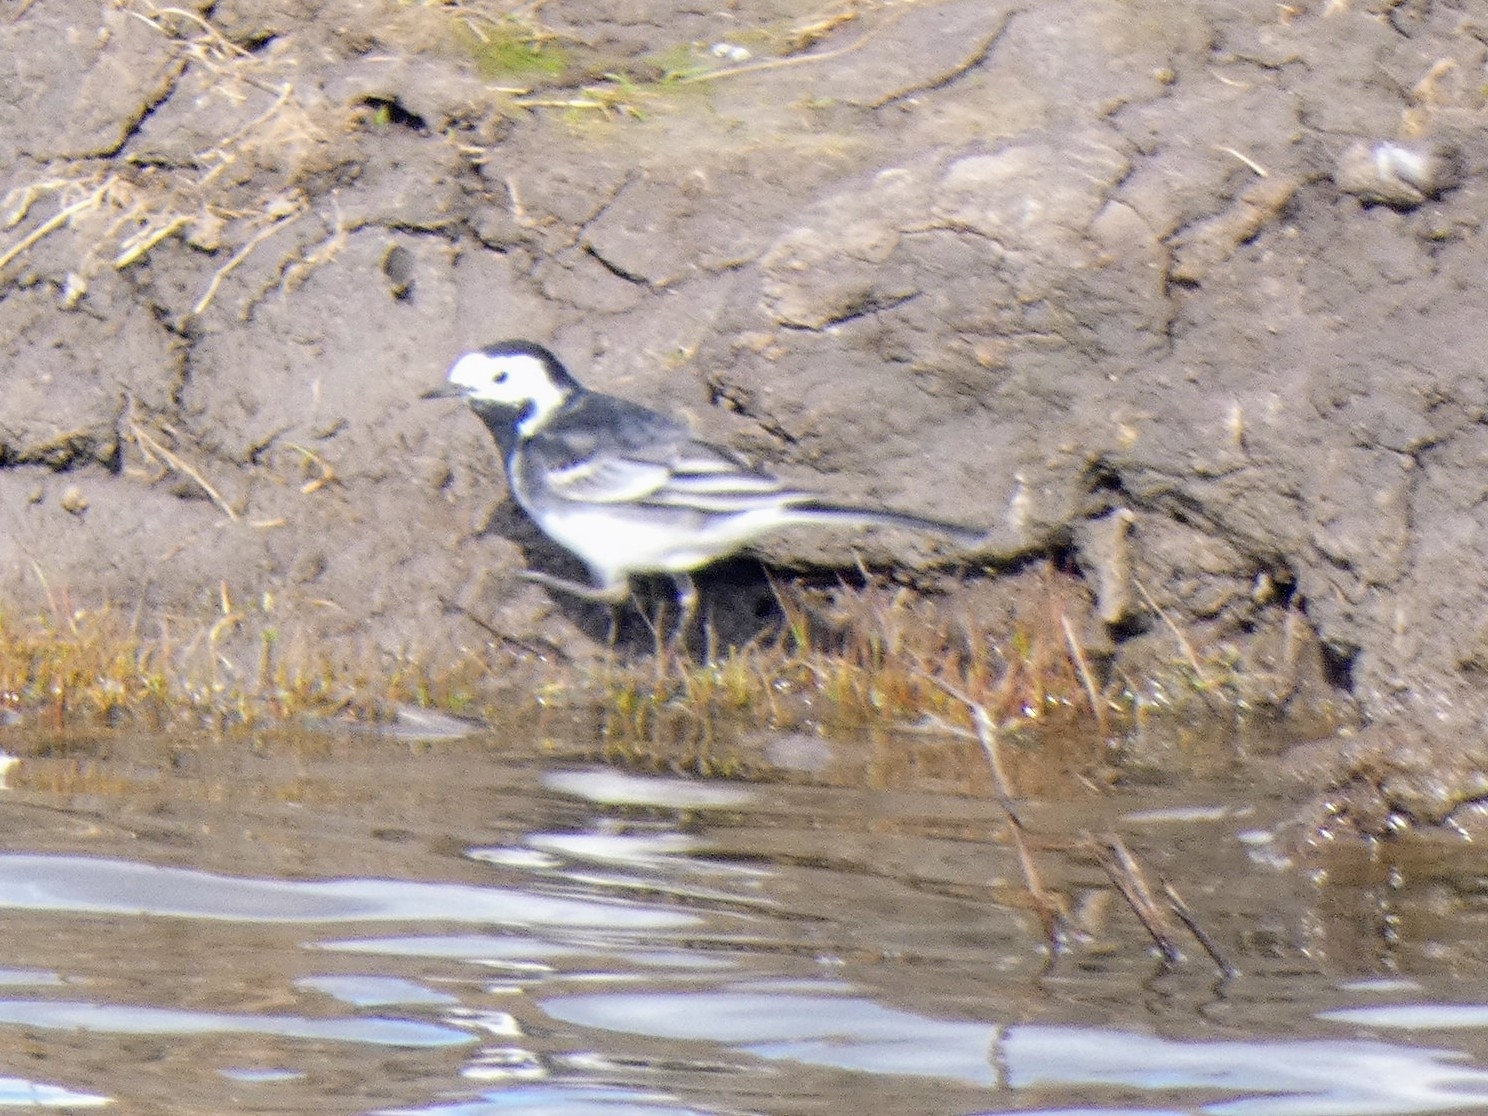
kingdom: Animalia
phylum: Chordata
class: Aves
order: Passeriformes
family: Motacillidae
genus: Motacilla
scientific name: Motacilla alba
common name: White wagtail
